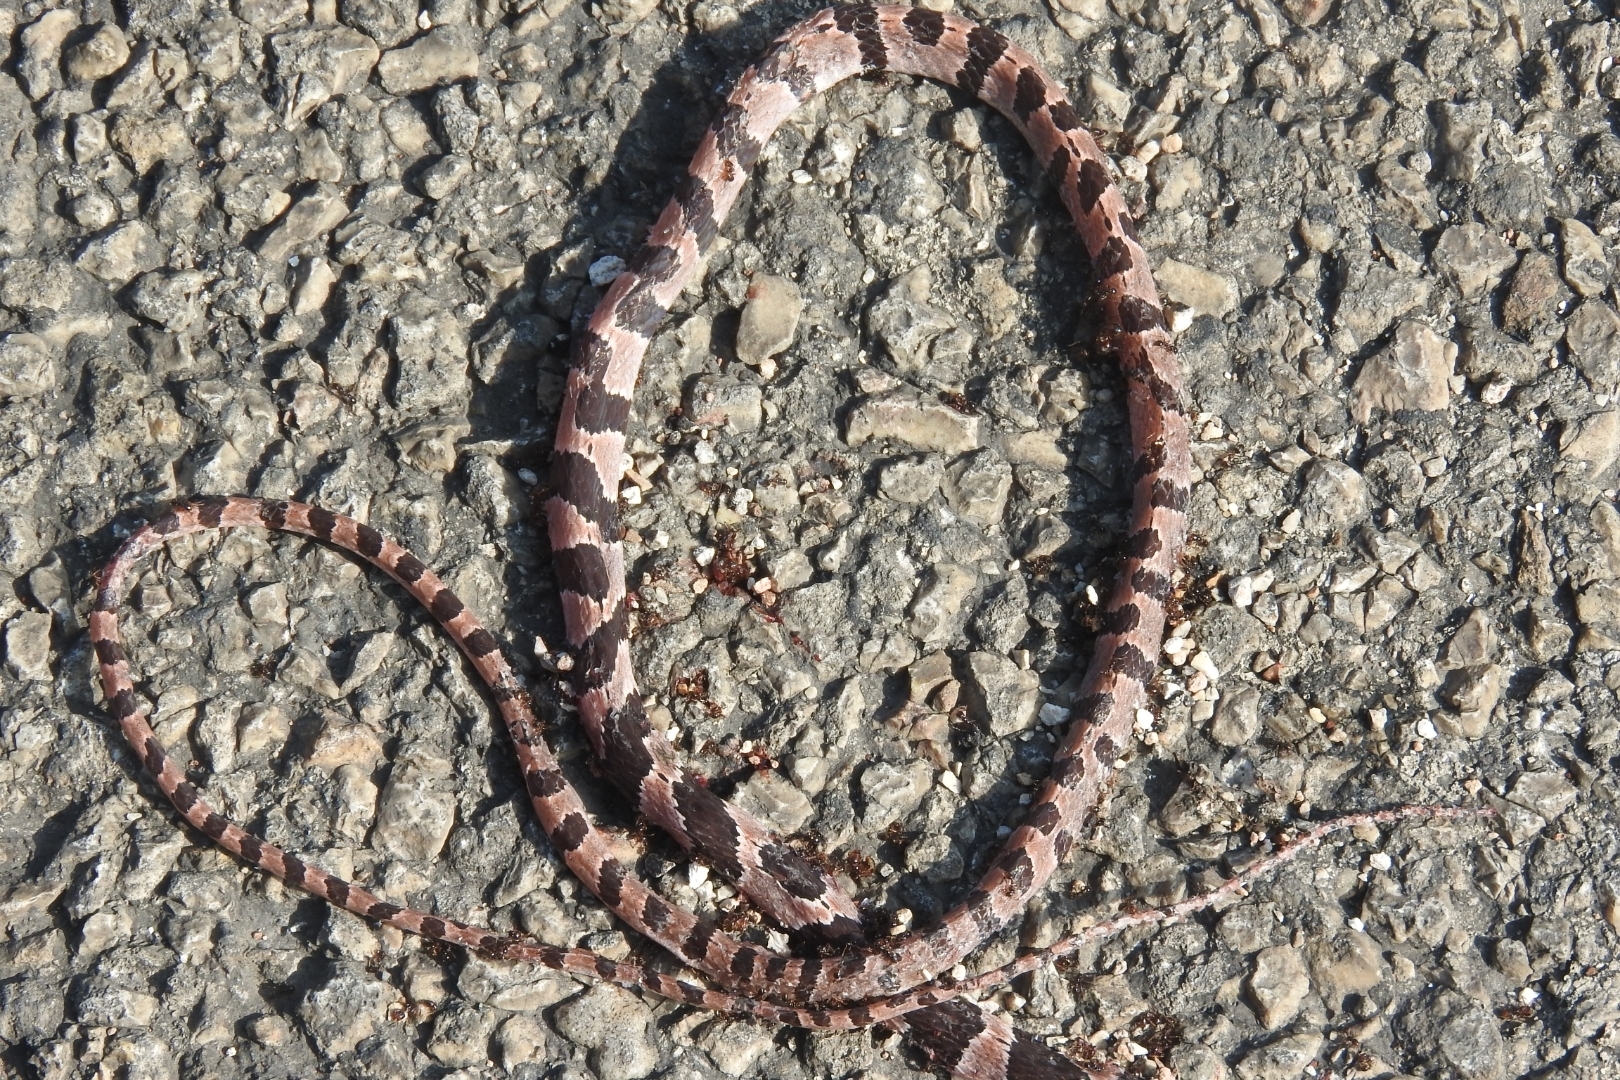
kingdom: Animalia
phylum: Chordata
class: Squamata
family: Colubridae
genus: Imantodes
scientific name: Imantodes tenuissimus
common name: Yucatán blunthead snake
